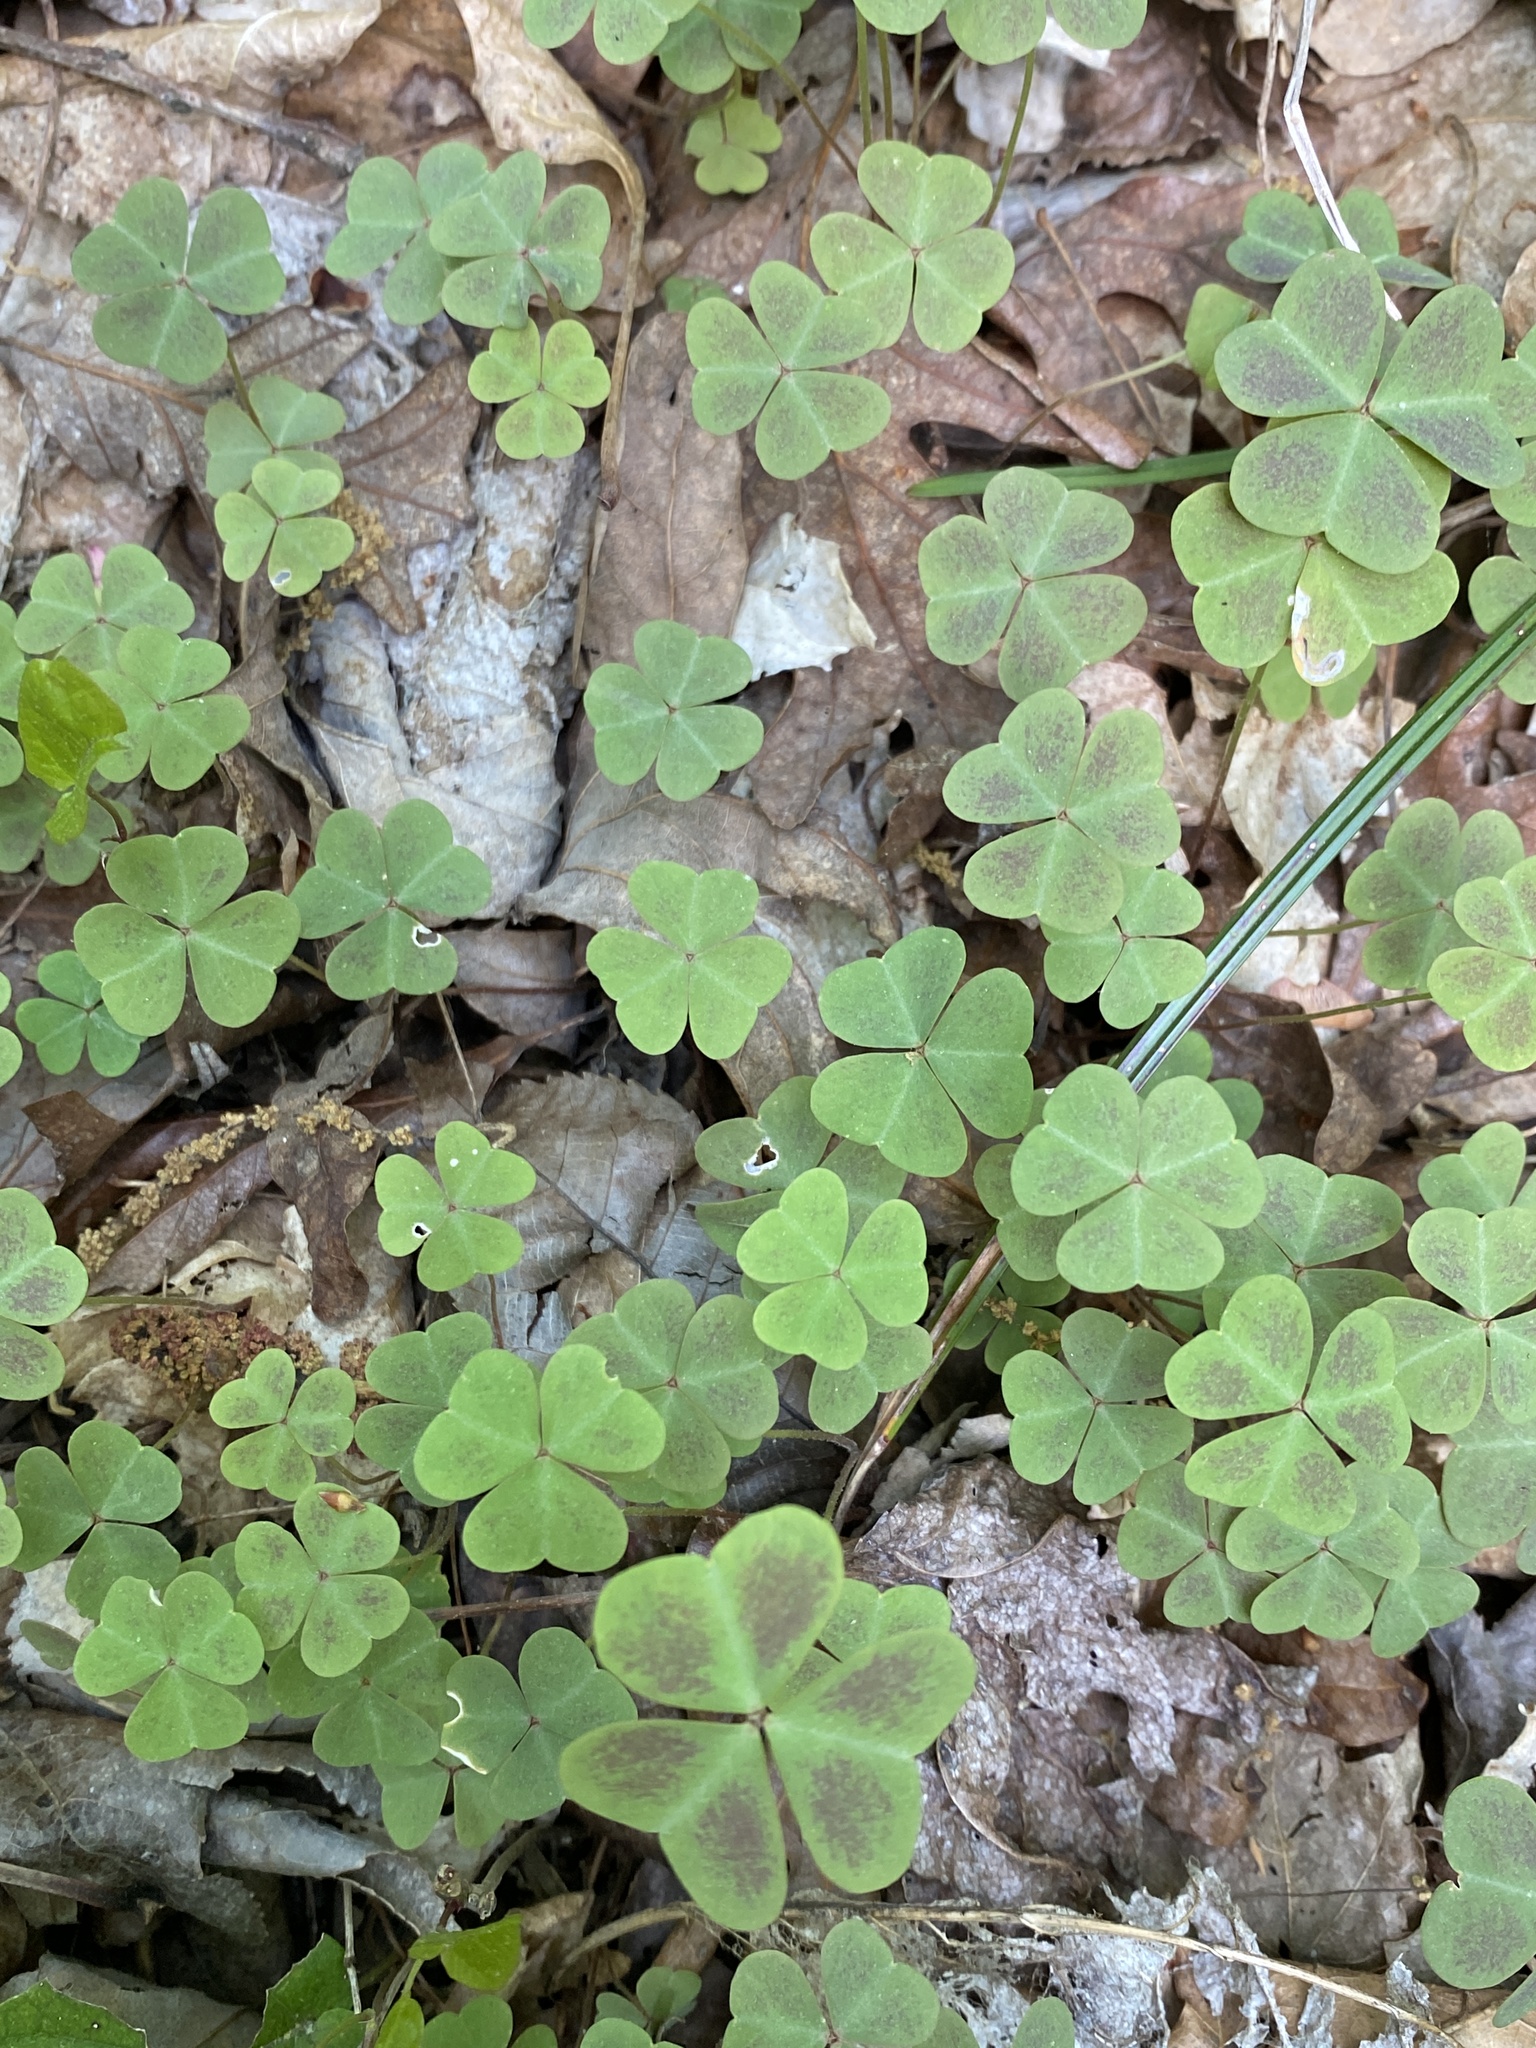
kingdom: Plantae
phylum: Tracheophyta
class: Magnoliopsida
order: Oxalidales
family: Oxalidaceae
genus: Oxalis
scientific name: Oxalis violacea
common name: Violet wood-sorrel
